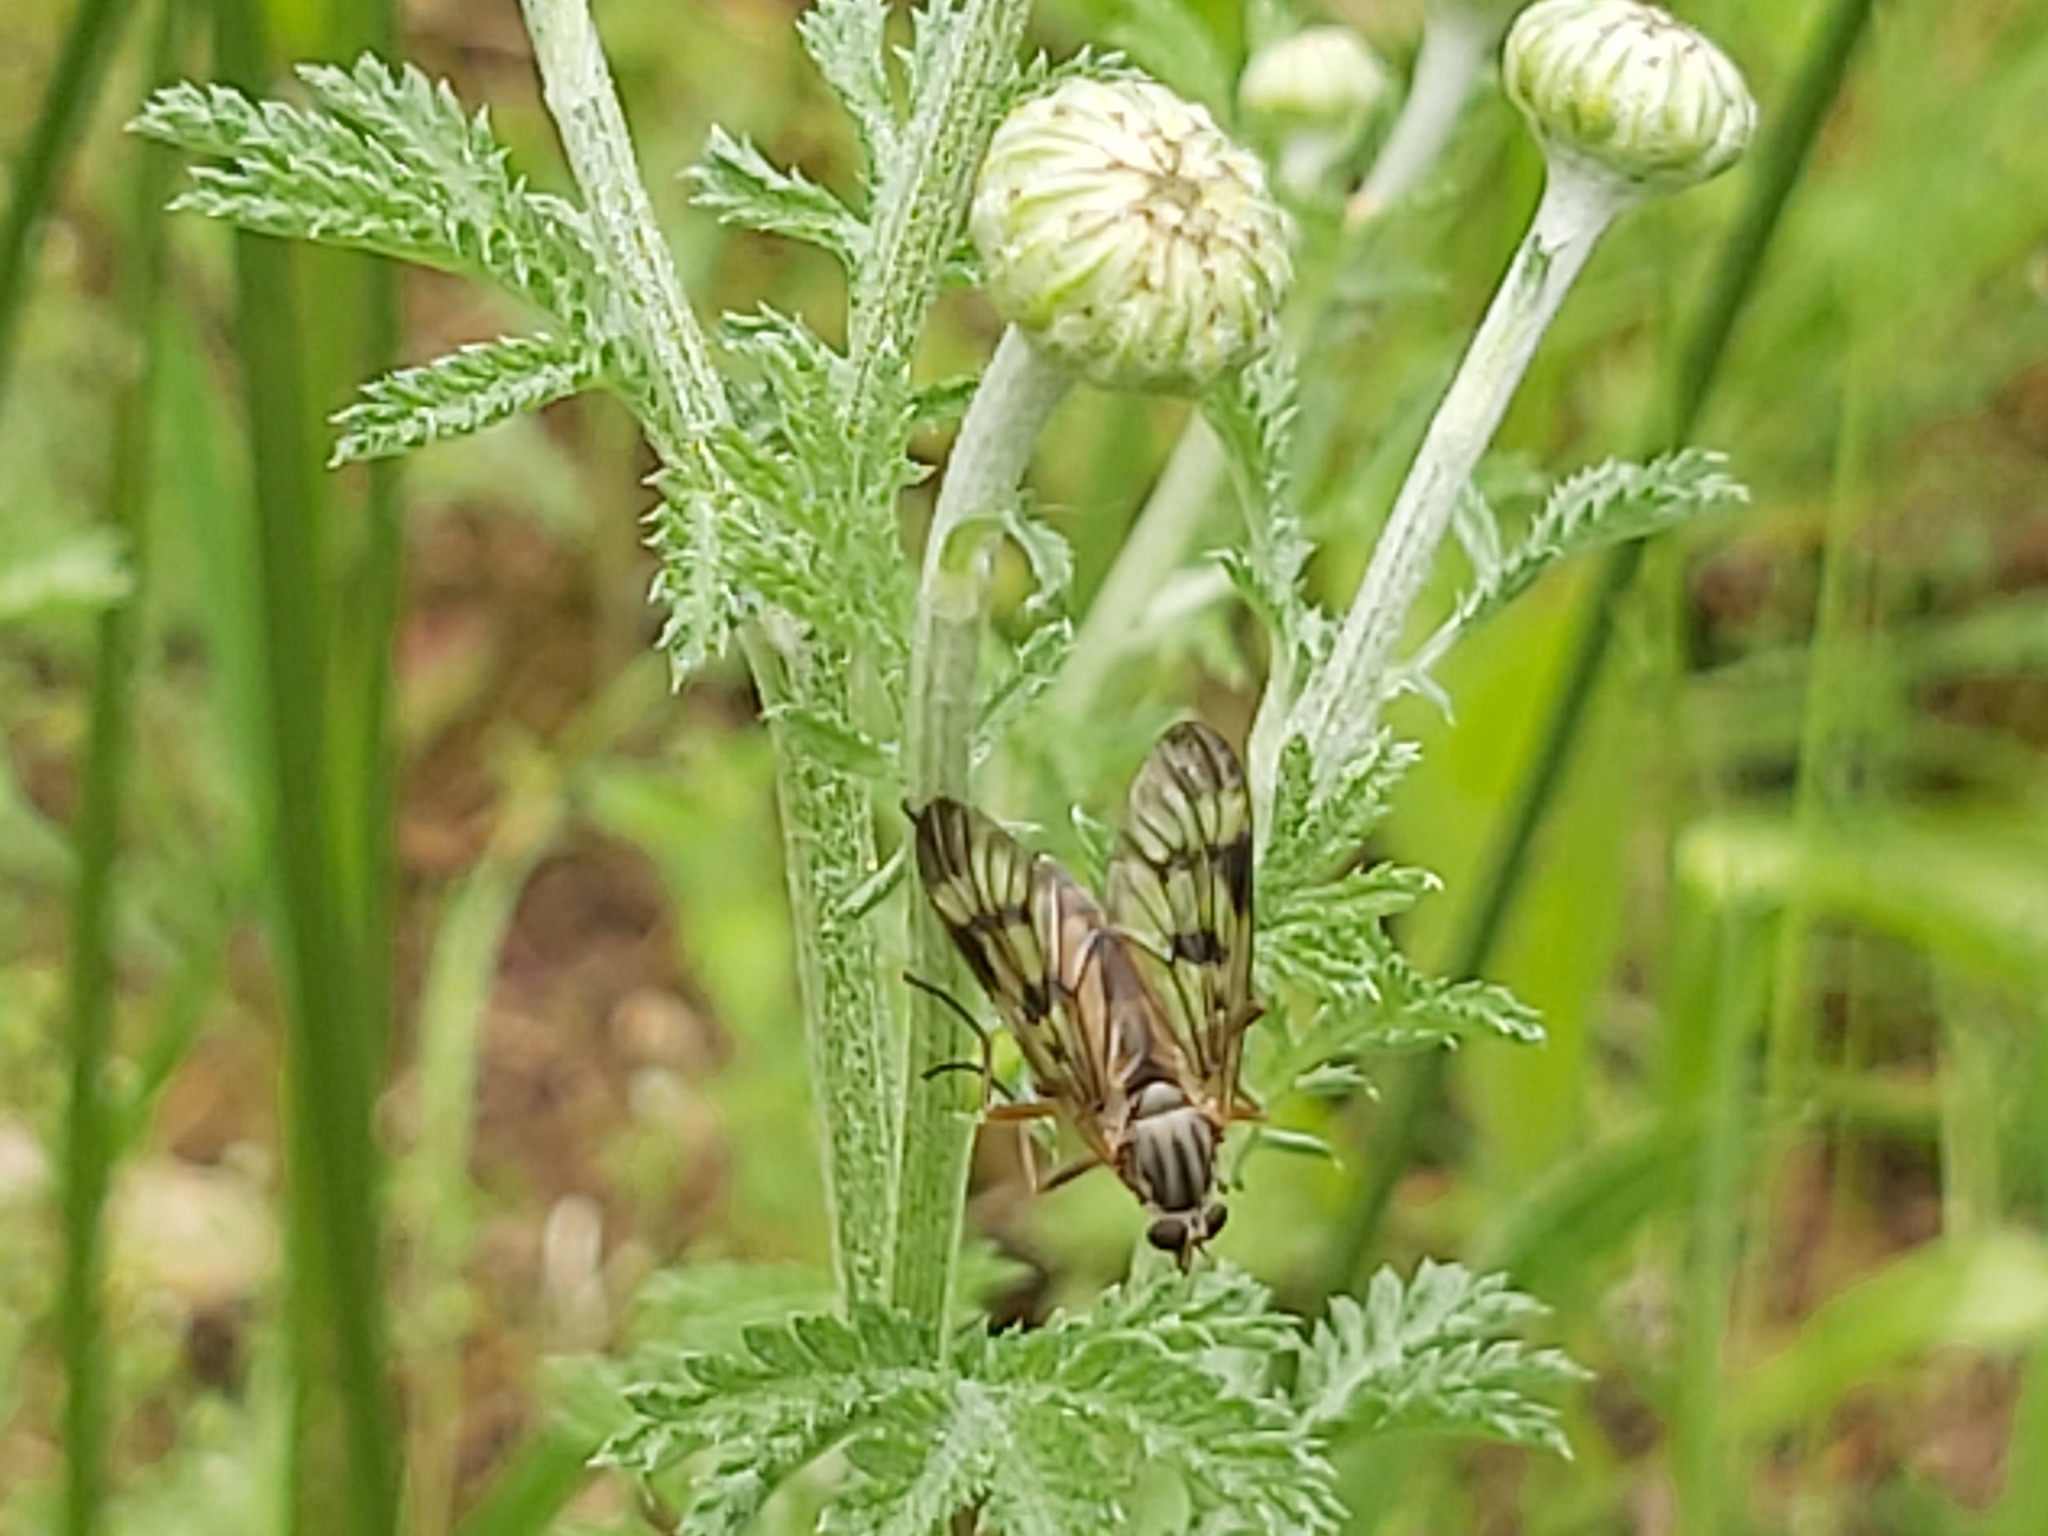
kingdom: Animalia
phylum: Arthropoda
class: Insecta
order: Diptera
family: Rhagionidae
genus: Rhagio
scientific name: Rhagio scolopacea
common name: Downlooker snipefly
